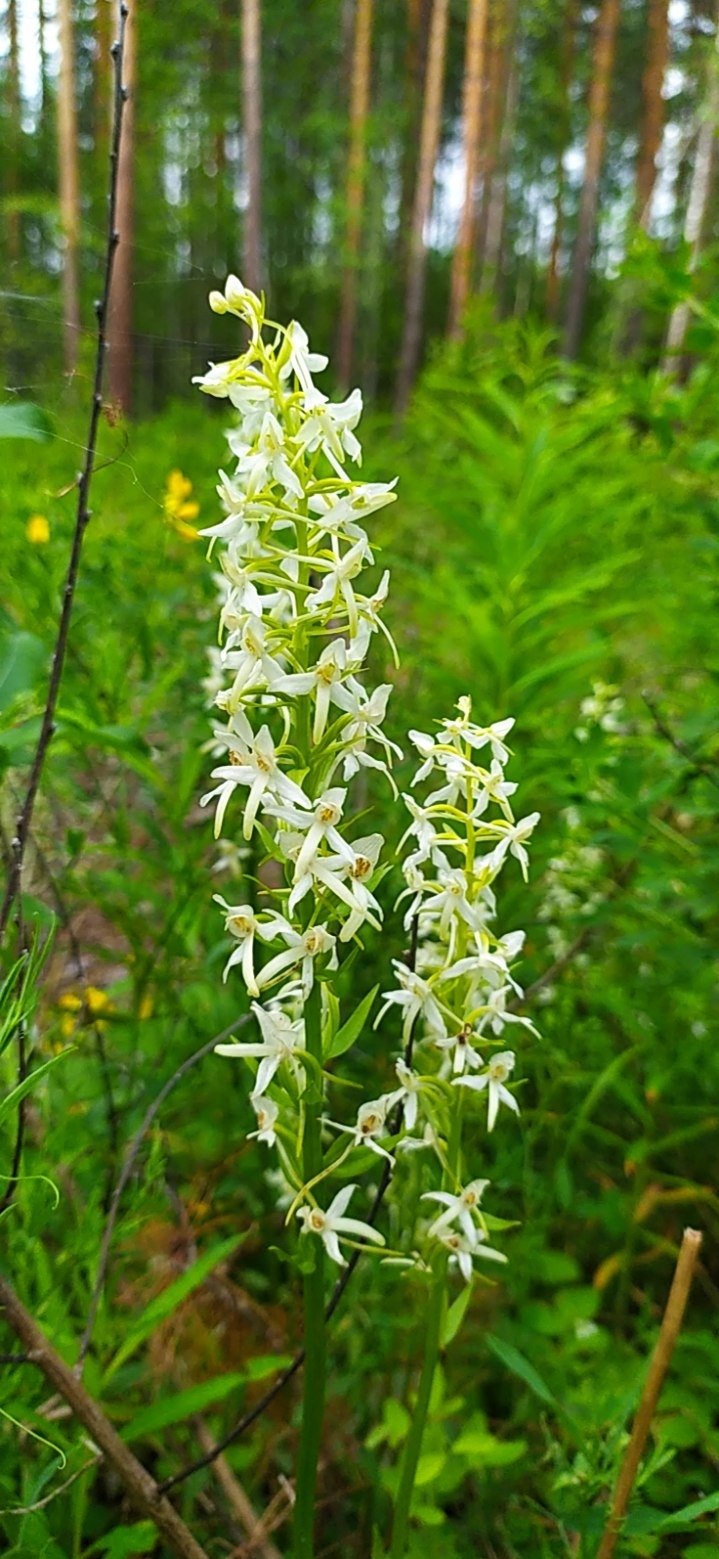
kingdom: Plantae
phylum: Tracheophyta
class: Liliopsida
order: Asparagales
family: Orchidaceae
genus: Platanthera
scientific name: Platanthera bifolia
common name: Lesser butterfly-orchid
